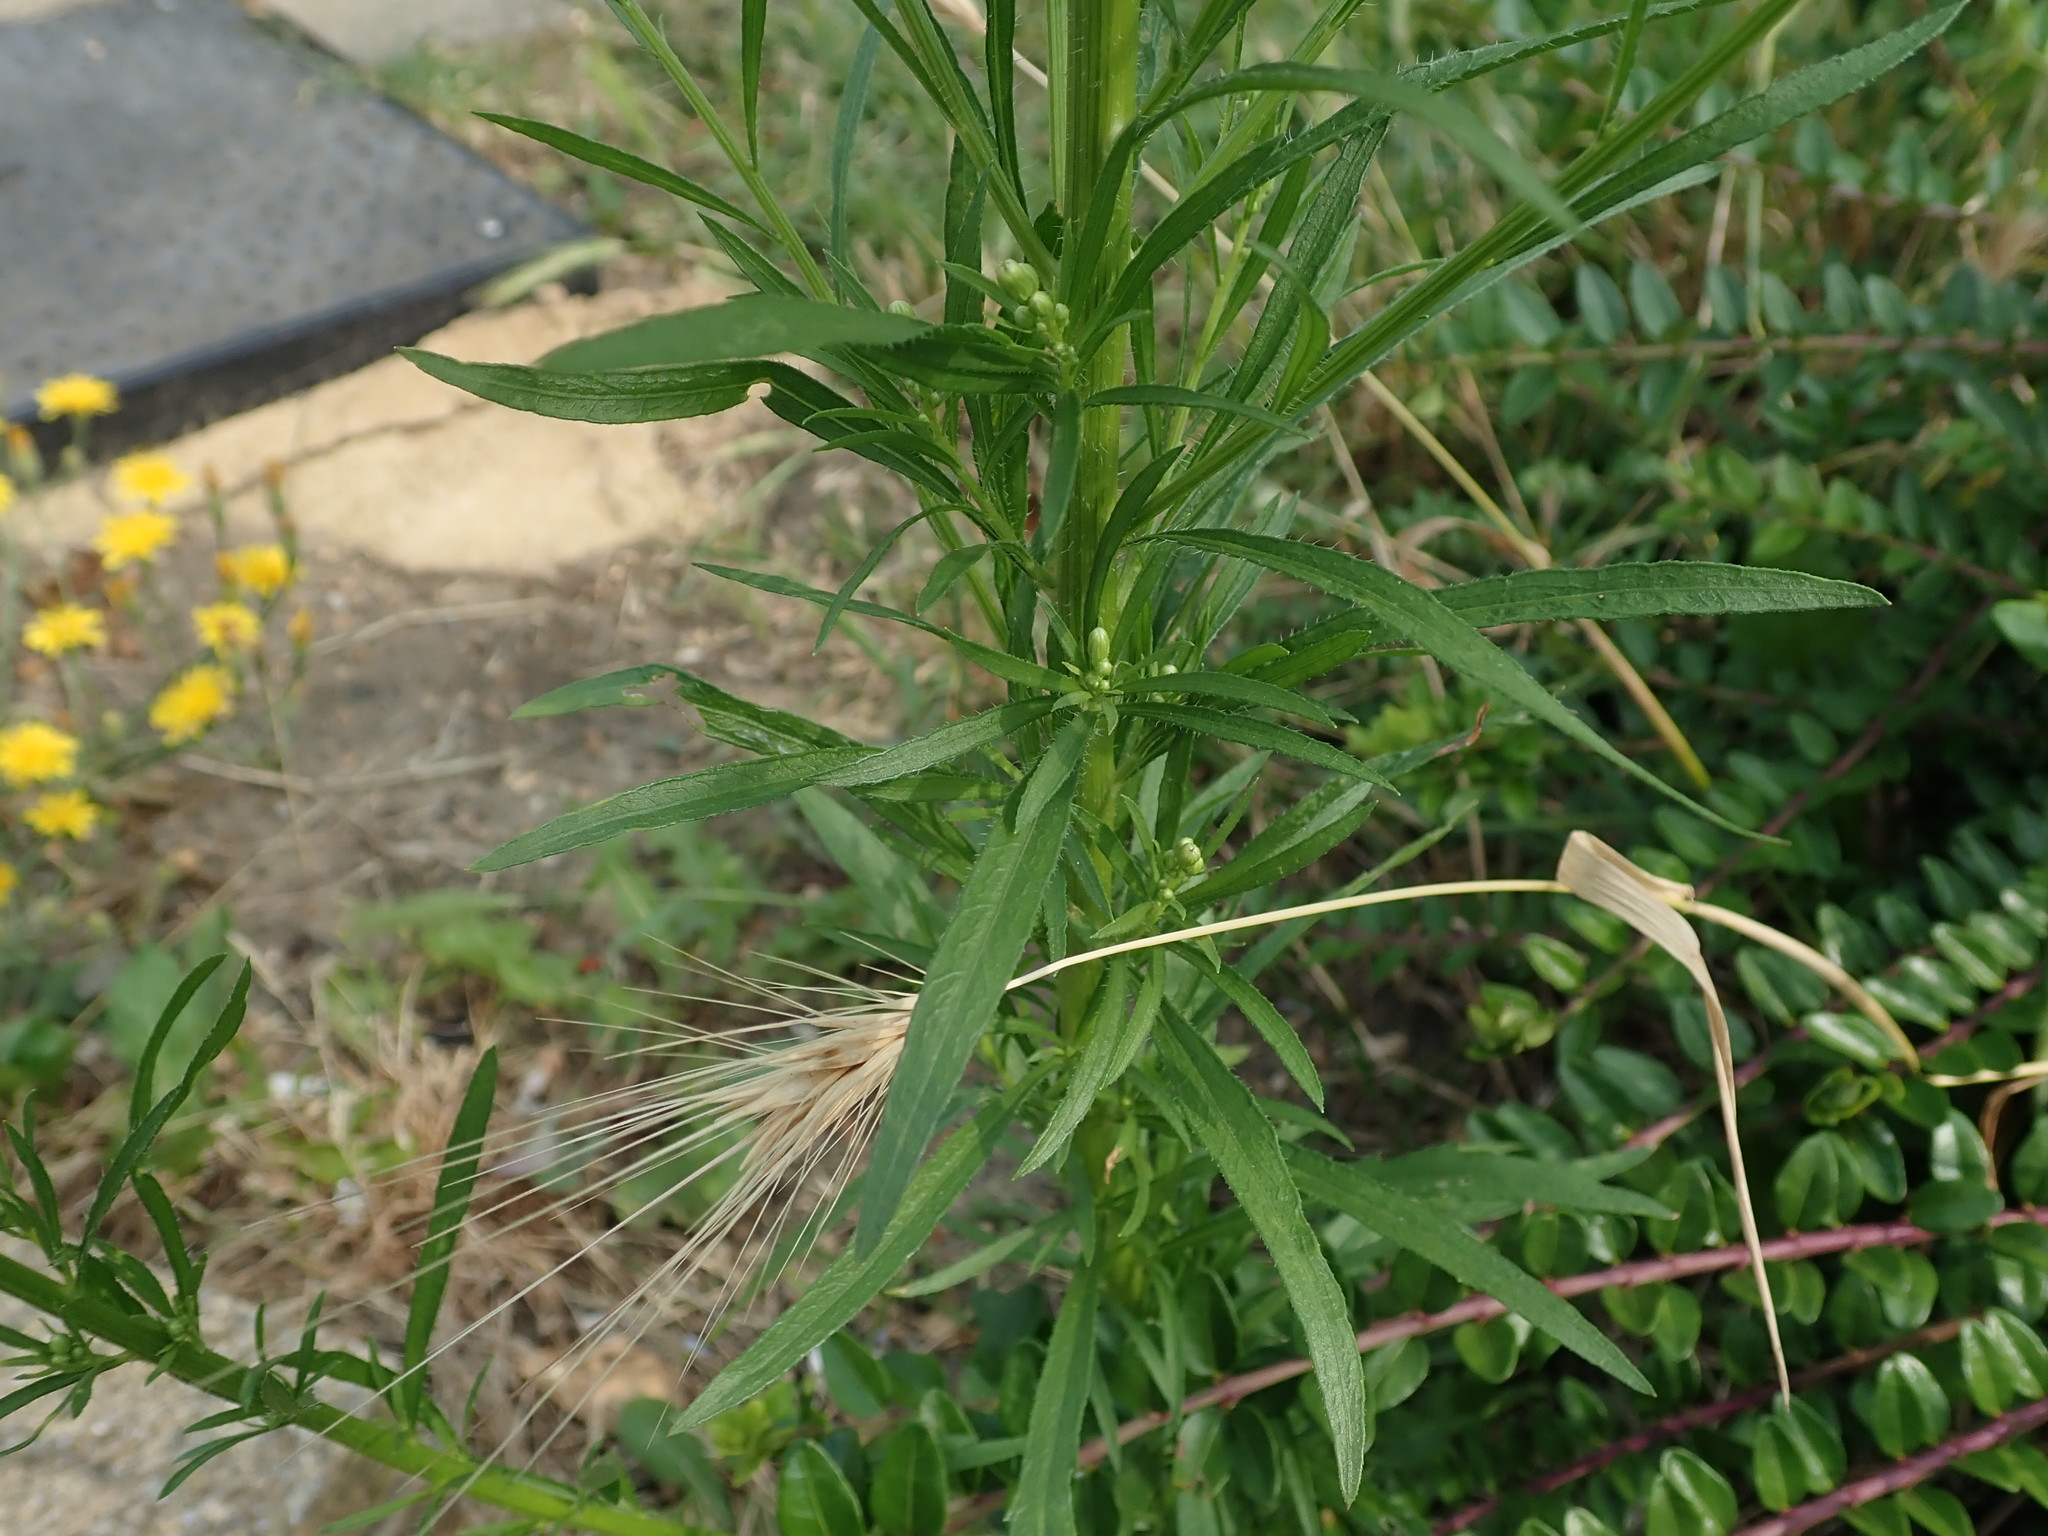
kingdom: Plantae
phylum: Tracheophyta
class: Magnoliopsida
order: Asterales
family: Asteraceae
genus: Erigeron
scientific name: Erigeron canadensis
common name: Canadian fleabane
